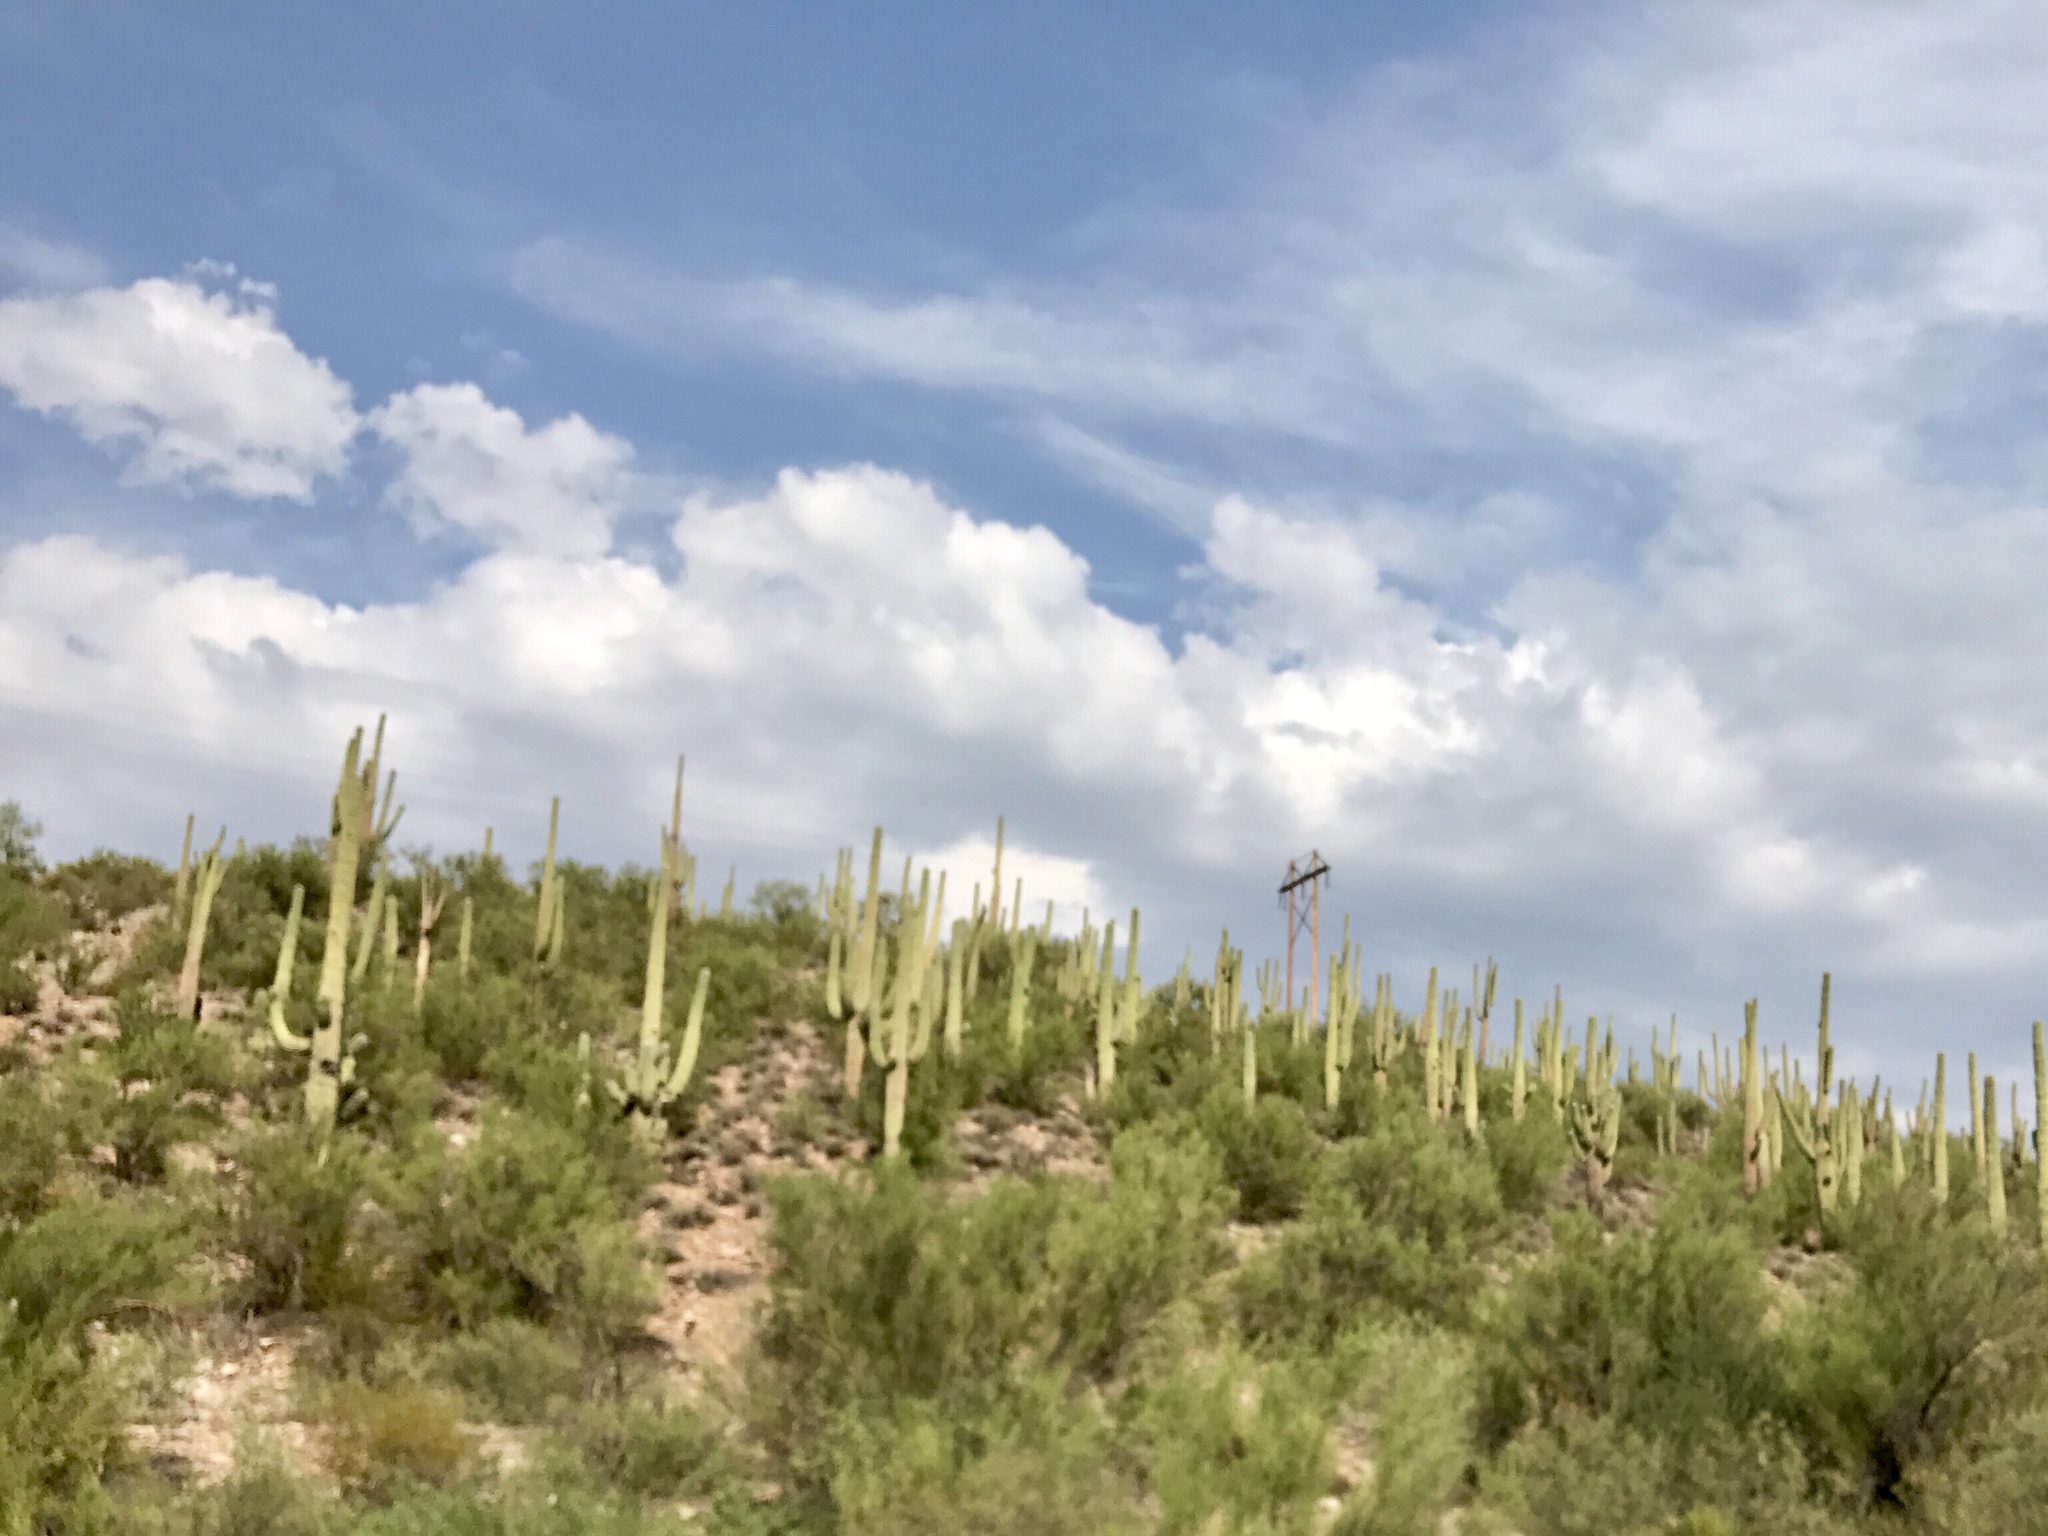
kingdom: Plantae
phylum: Tracheophyta
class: Magnoliopsida
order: Caryophyllales
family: Cactaceae
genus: Carnegiea
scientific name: Carnegiea gigantea
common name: Saguaro
